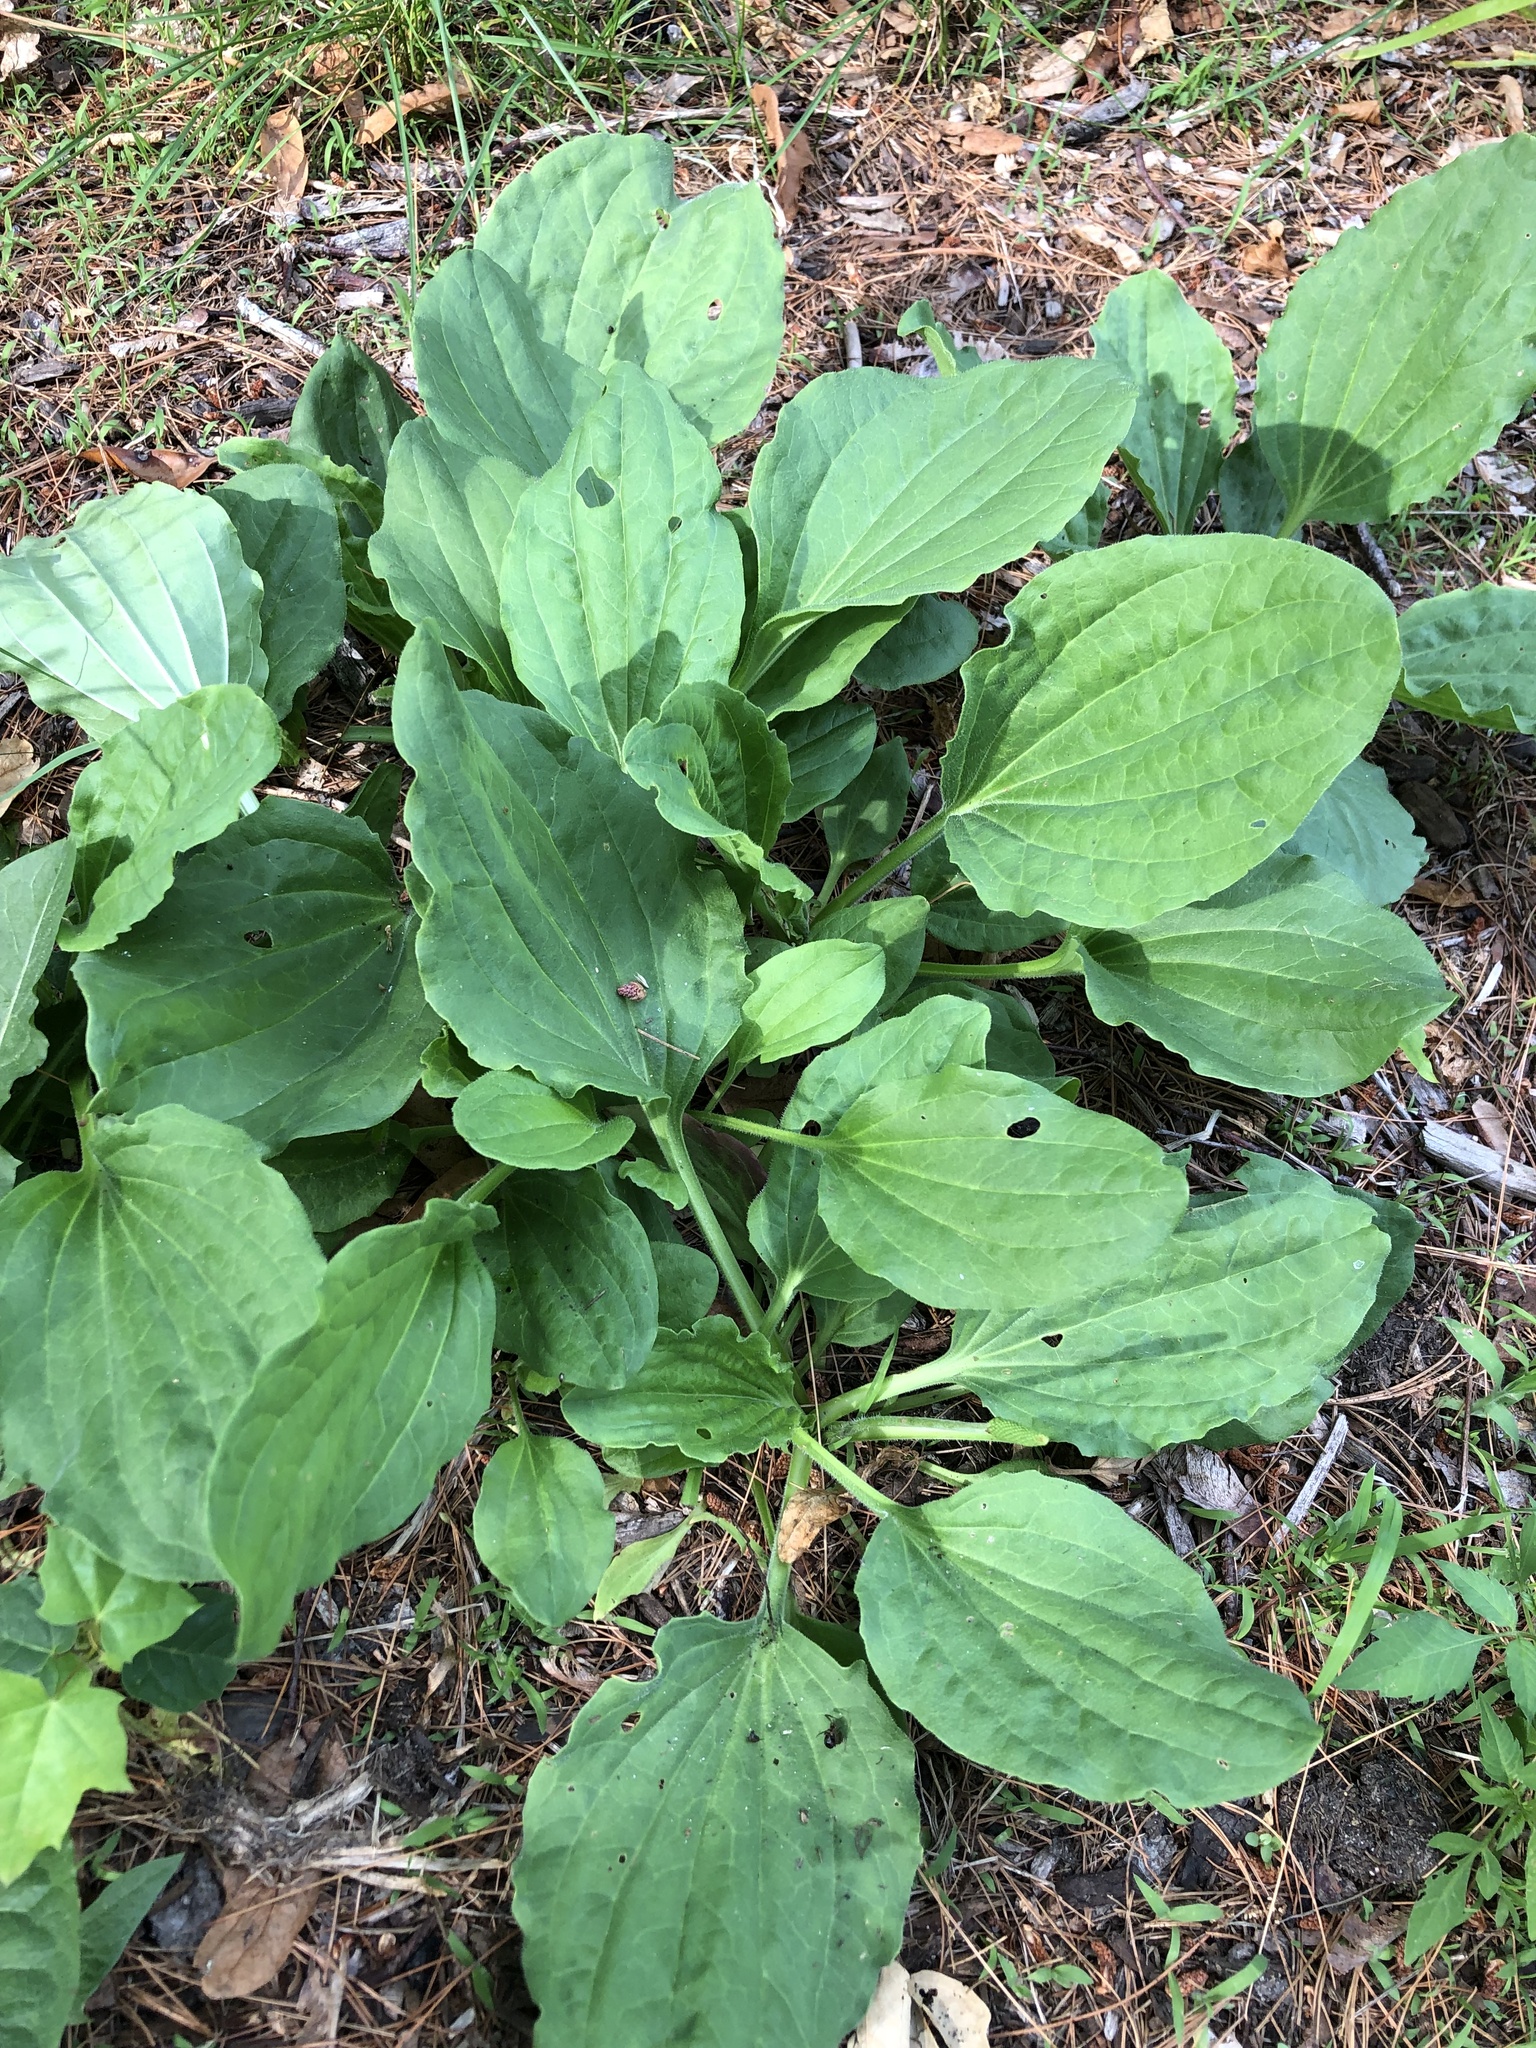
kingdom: Plantae
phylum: Tracheophyta
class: Magnoliopsida
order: Lamiales
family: Plantaginaceae
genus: Plantago
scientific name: Plantago major
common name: Common plantain
